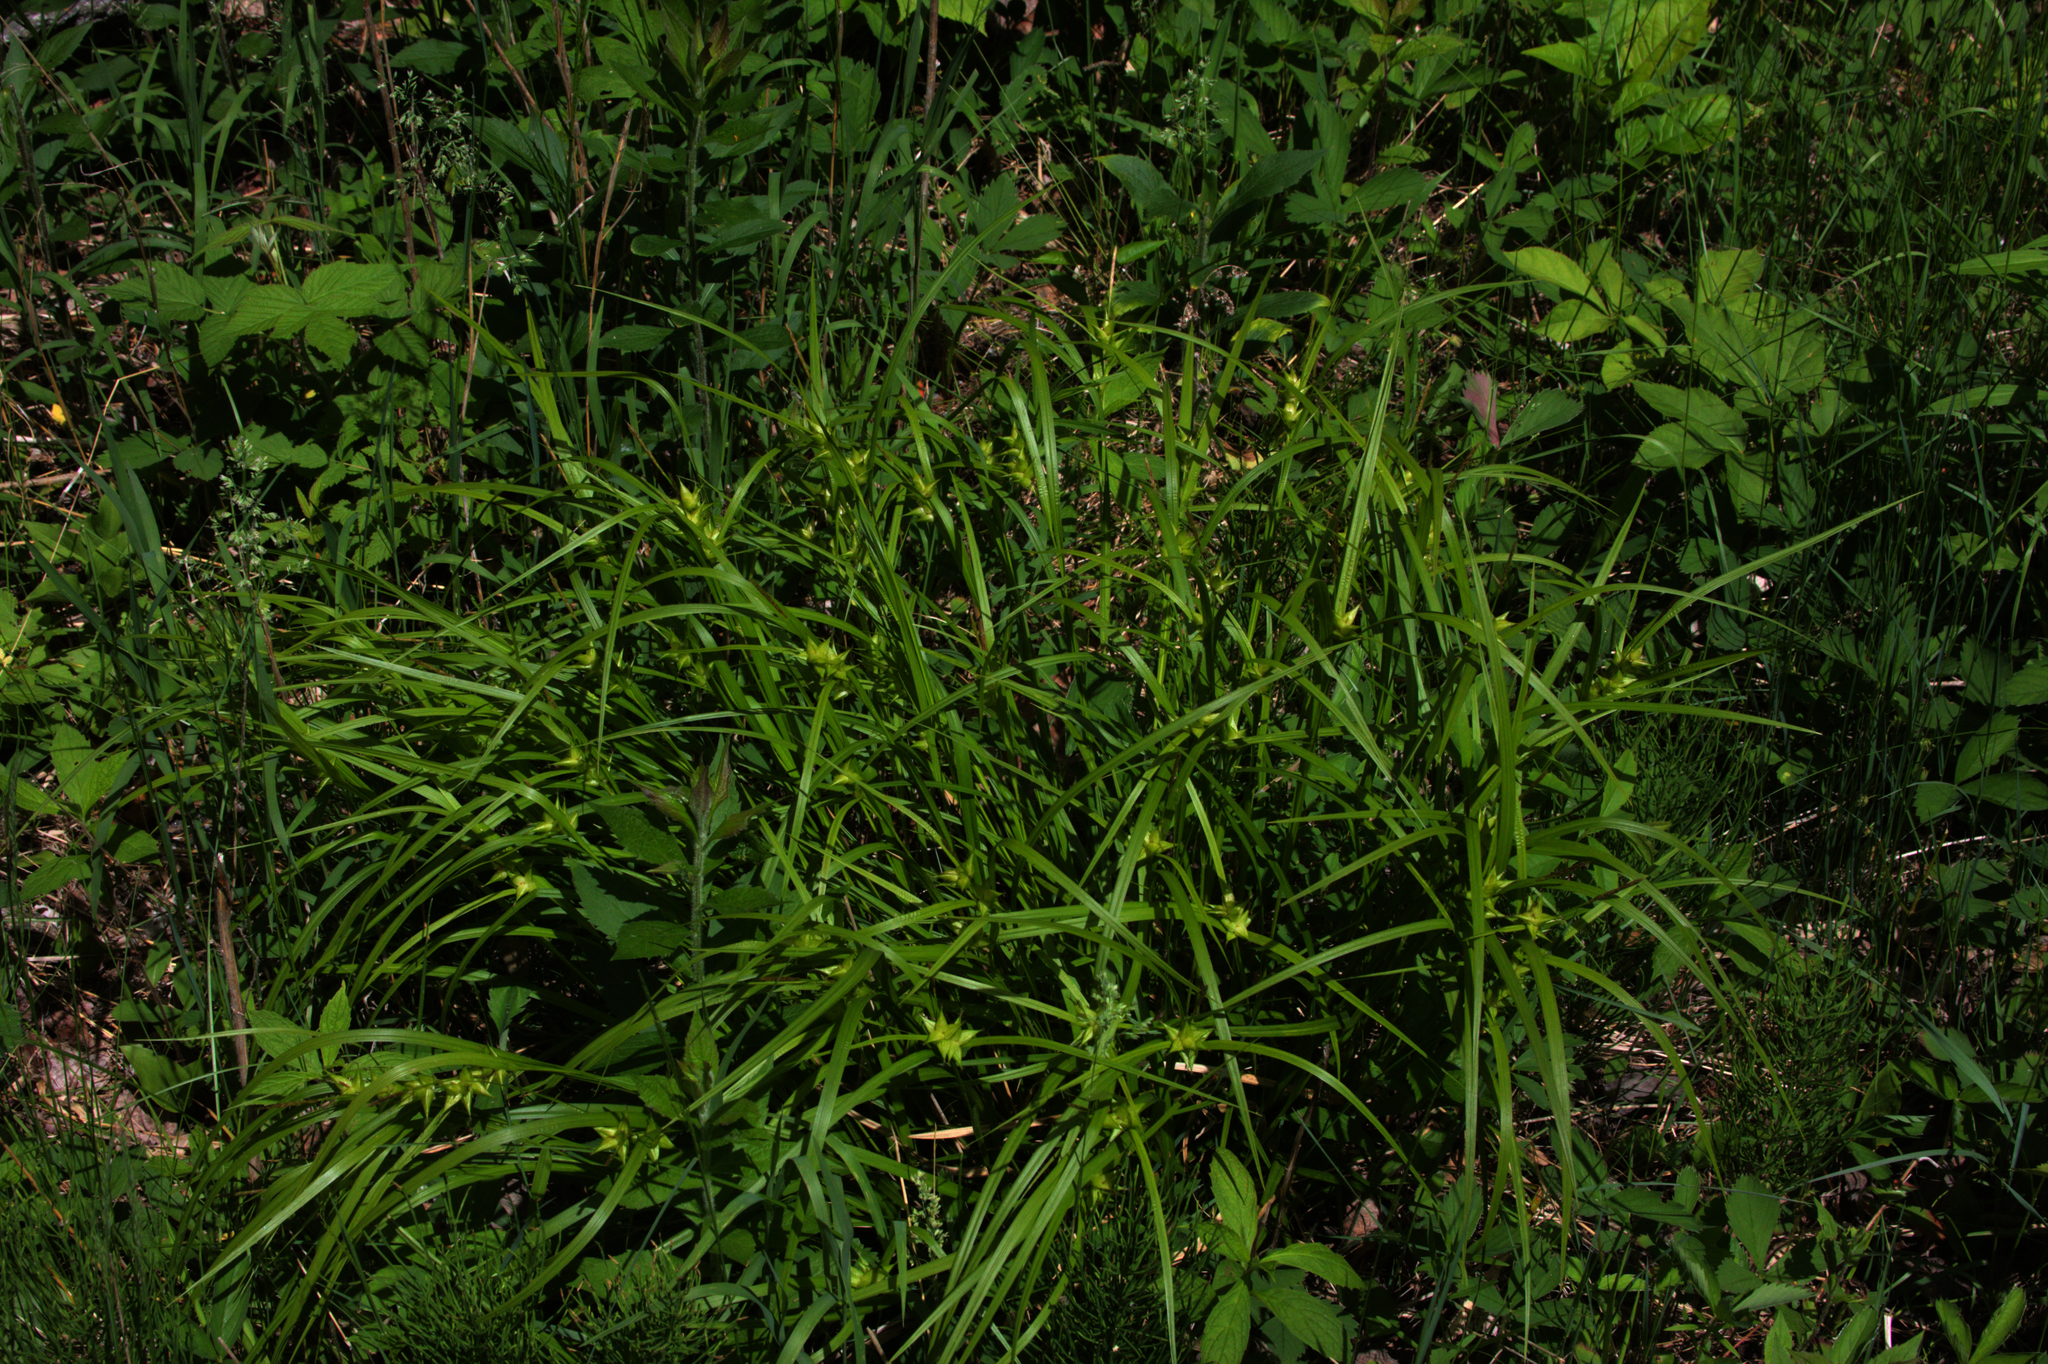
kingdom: Plantae
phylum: Tracheophyta
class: Liliopsida
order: Poales
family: Cyperaceae
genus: Carex
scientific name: Carex intumescens
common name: Greater bladder sedge
